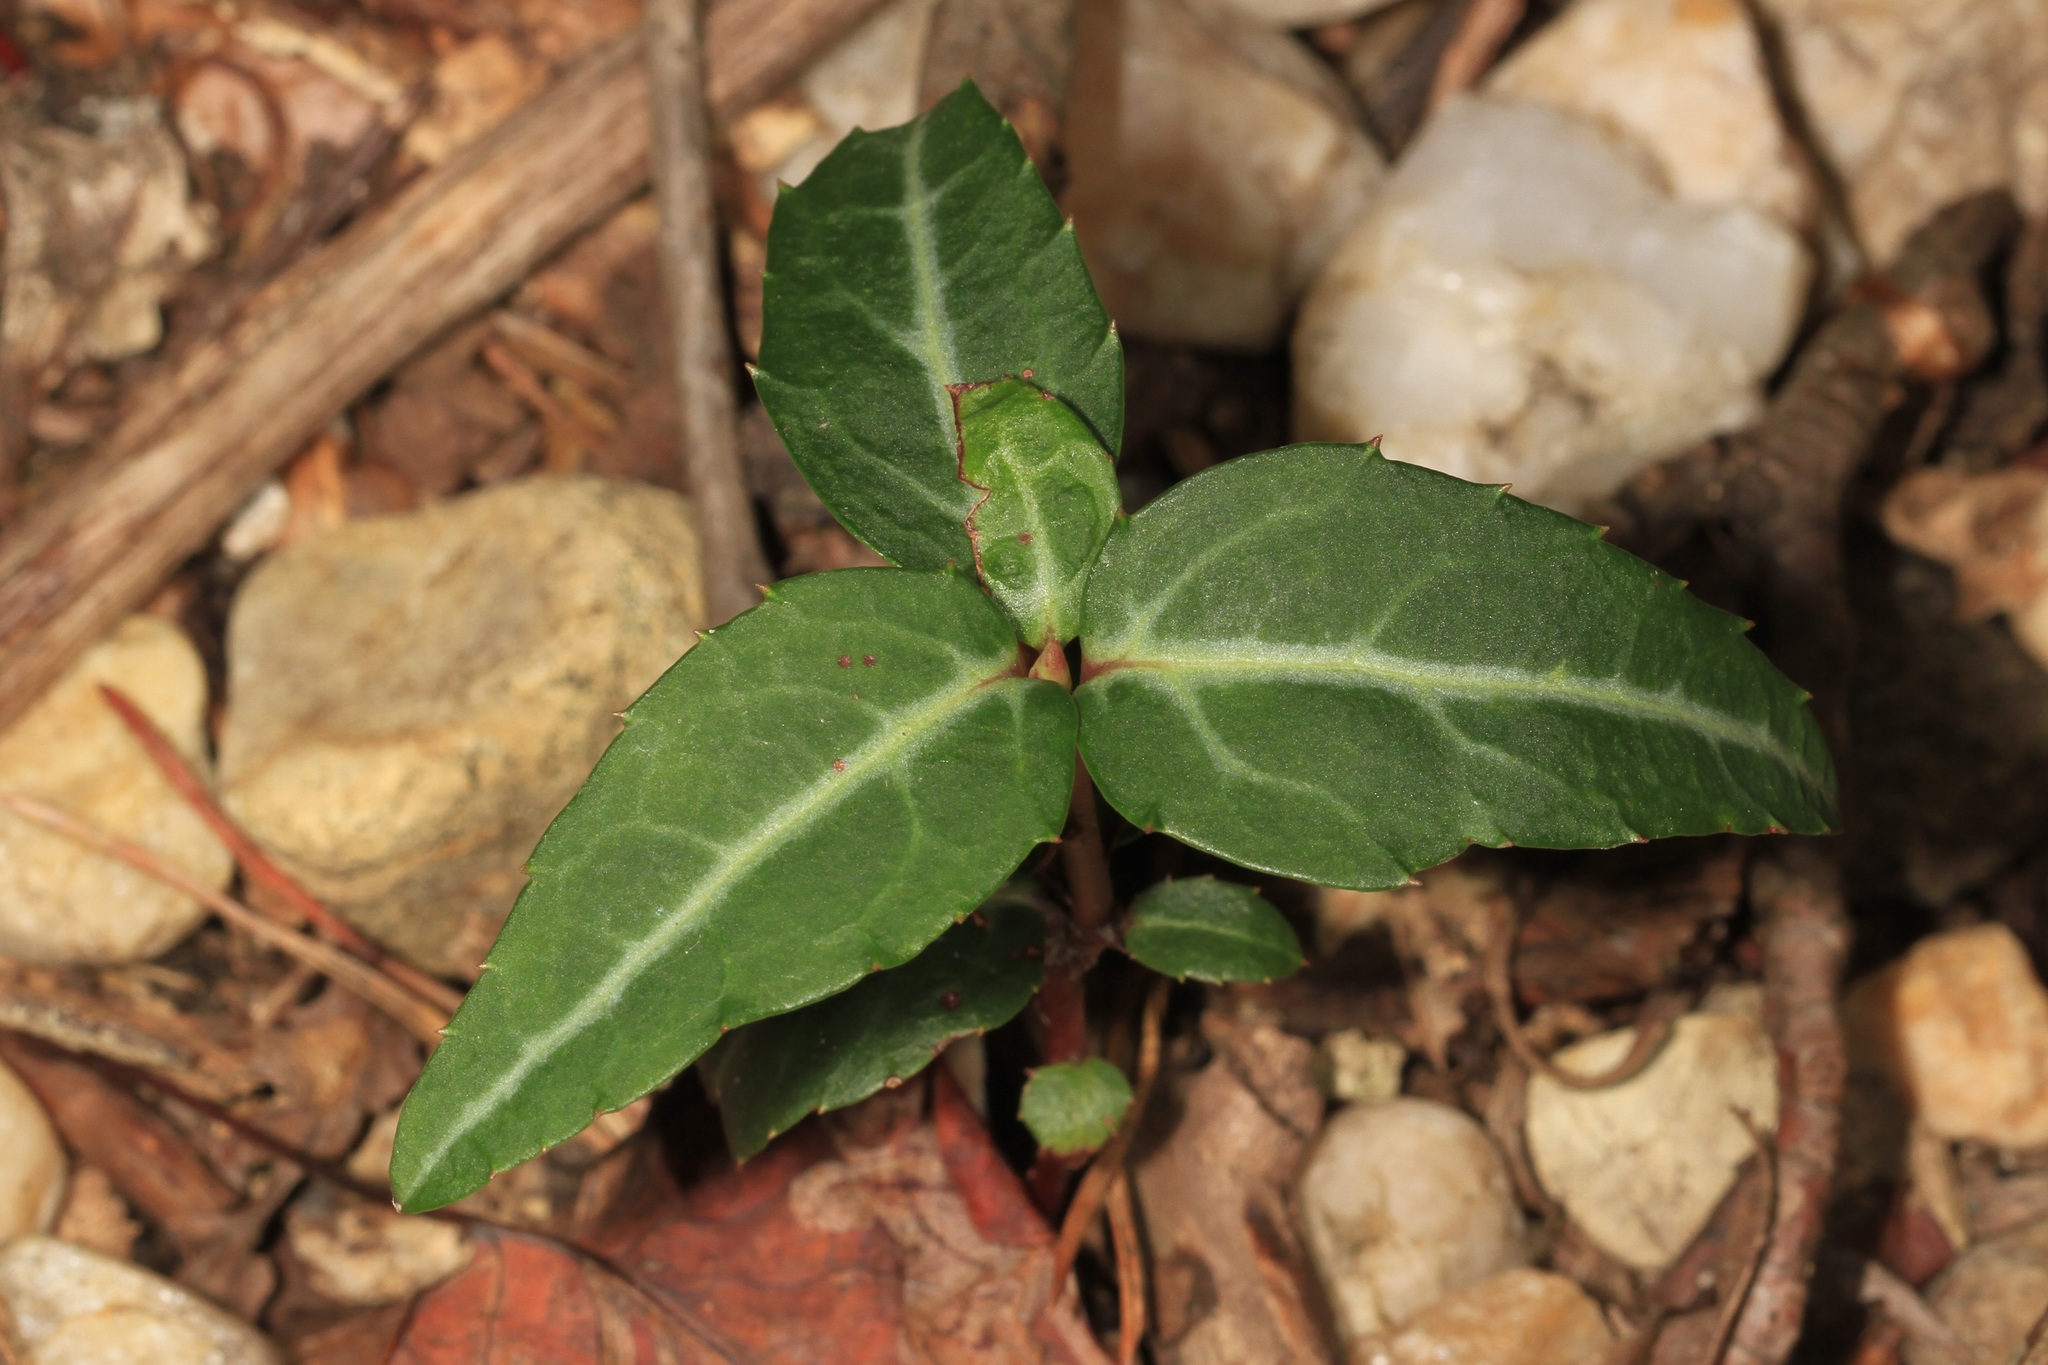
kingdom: Plantae
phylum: Tracheophyta
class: Magnoliopsida
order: Ericales
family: Ericaceae
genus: Chimaphila
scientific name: Chimaphila maculata
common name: Spotted pipsissewa
